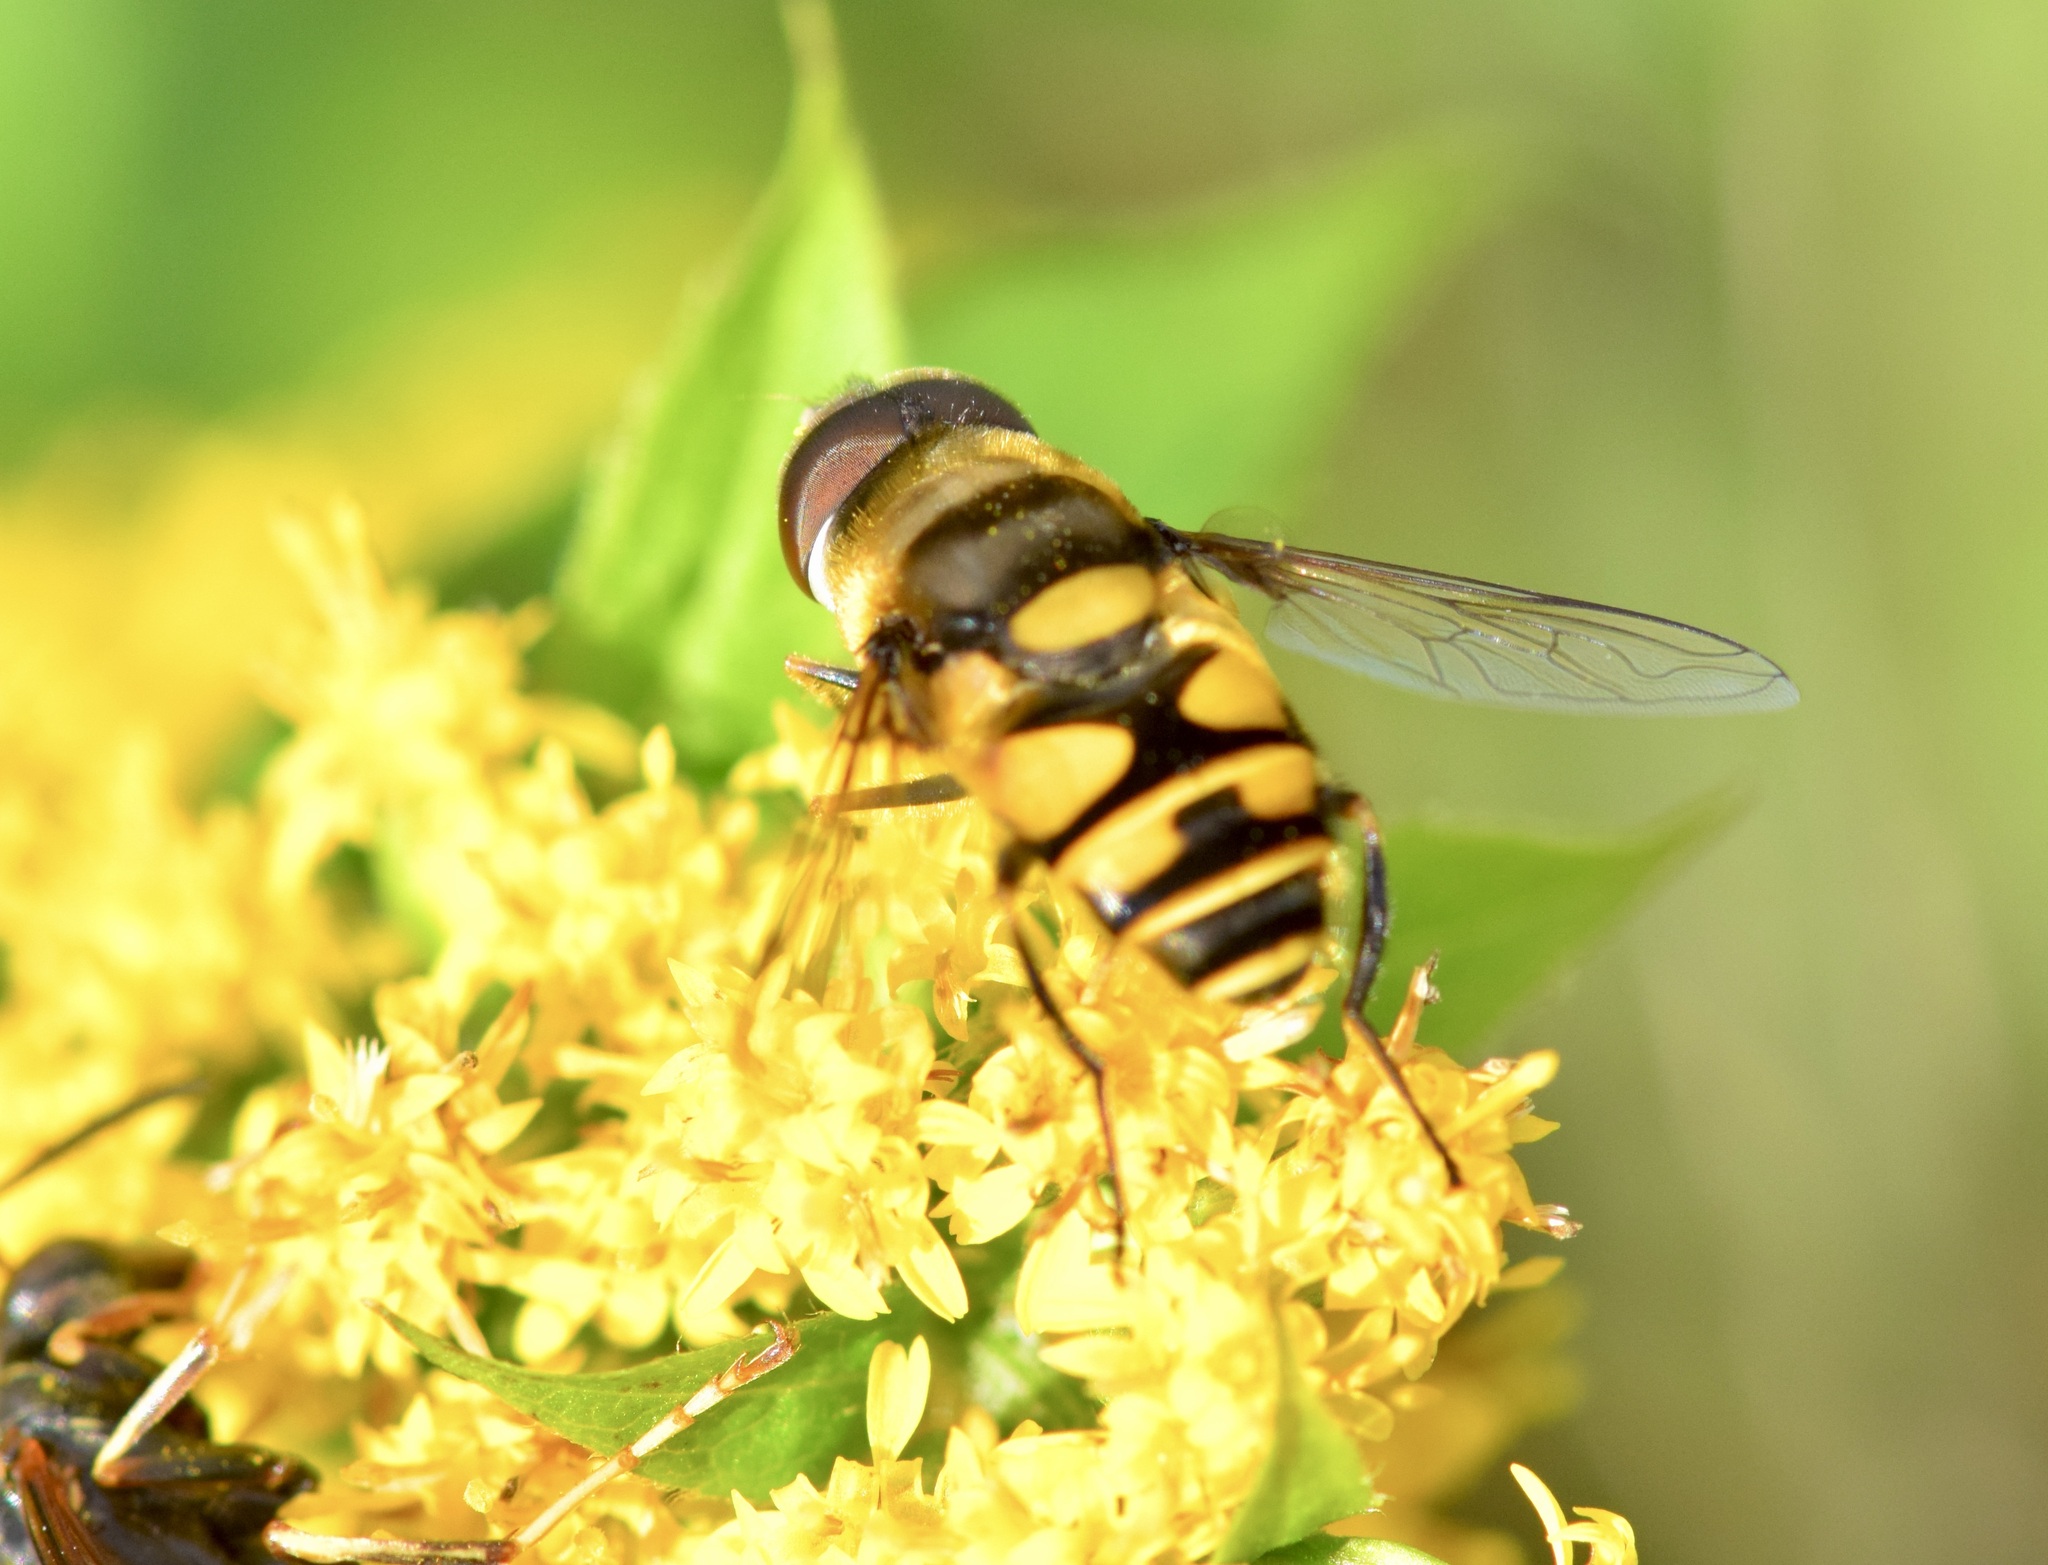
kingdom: Animalia
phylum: Arthropoda
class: Insecta
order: Diptera
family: Syrphidae
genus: Eristalis
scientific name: Eristalis transversa
